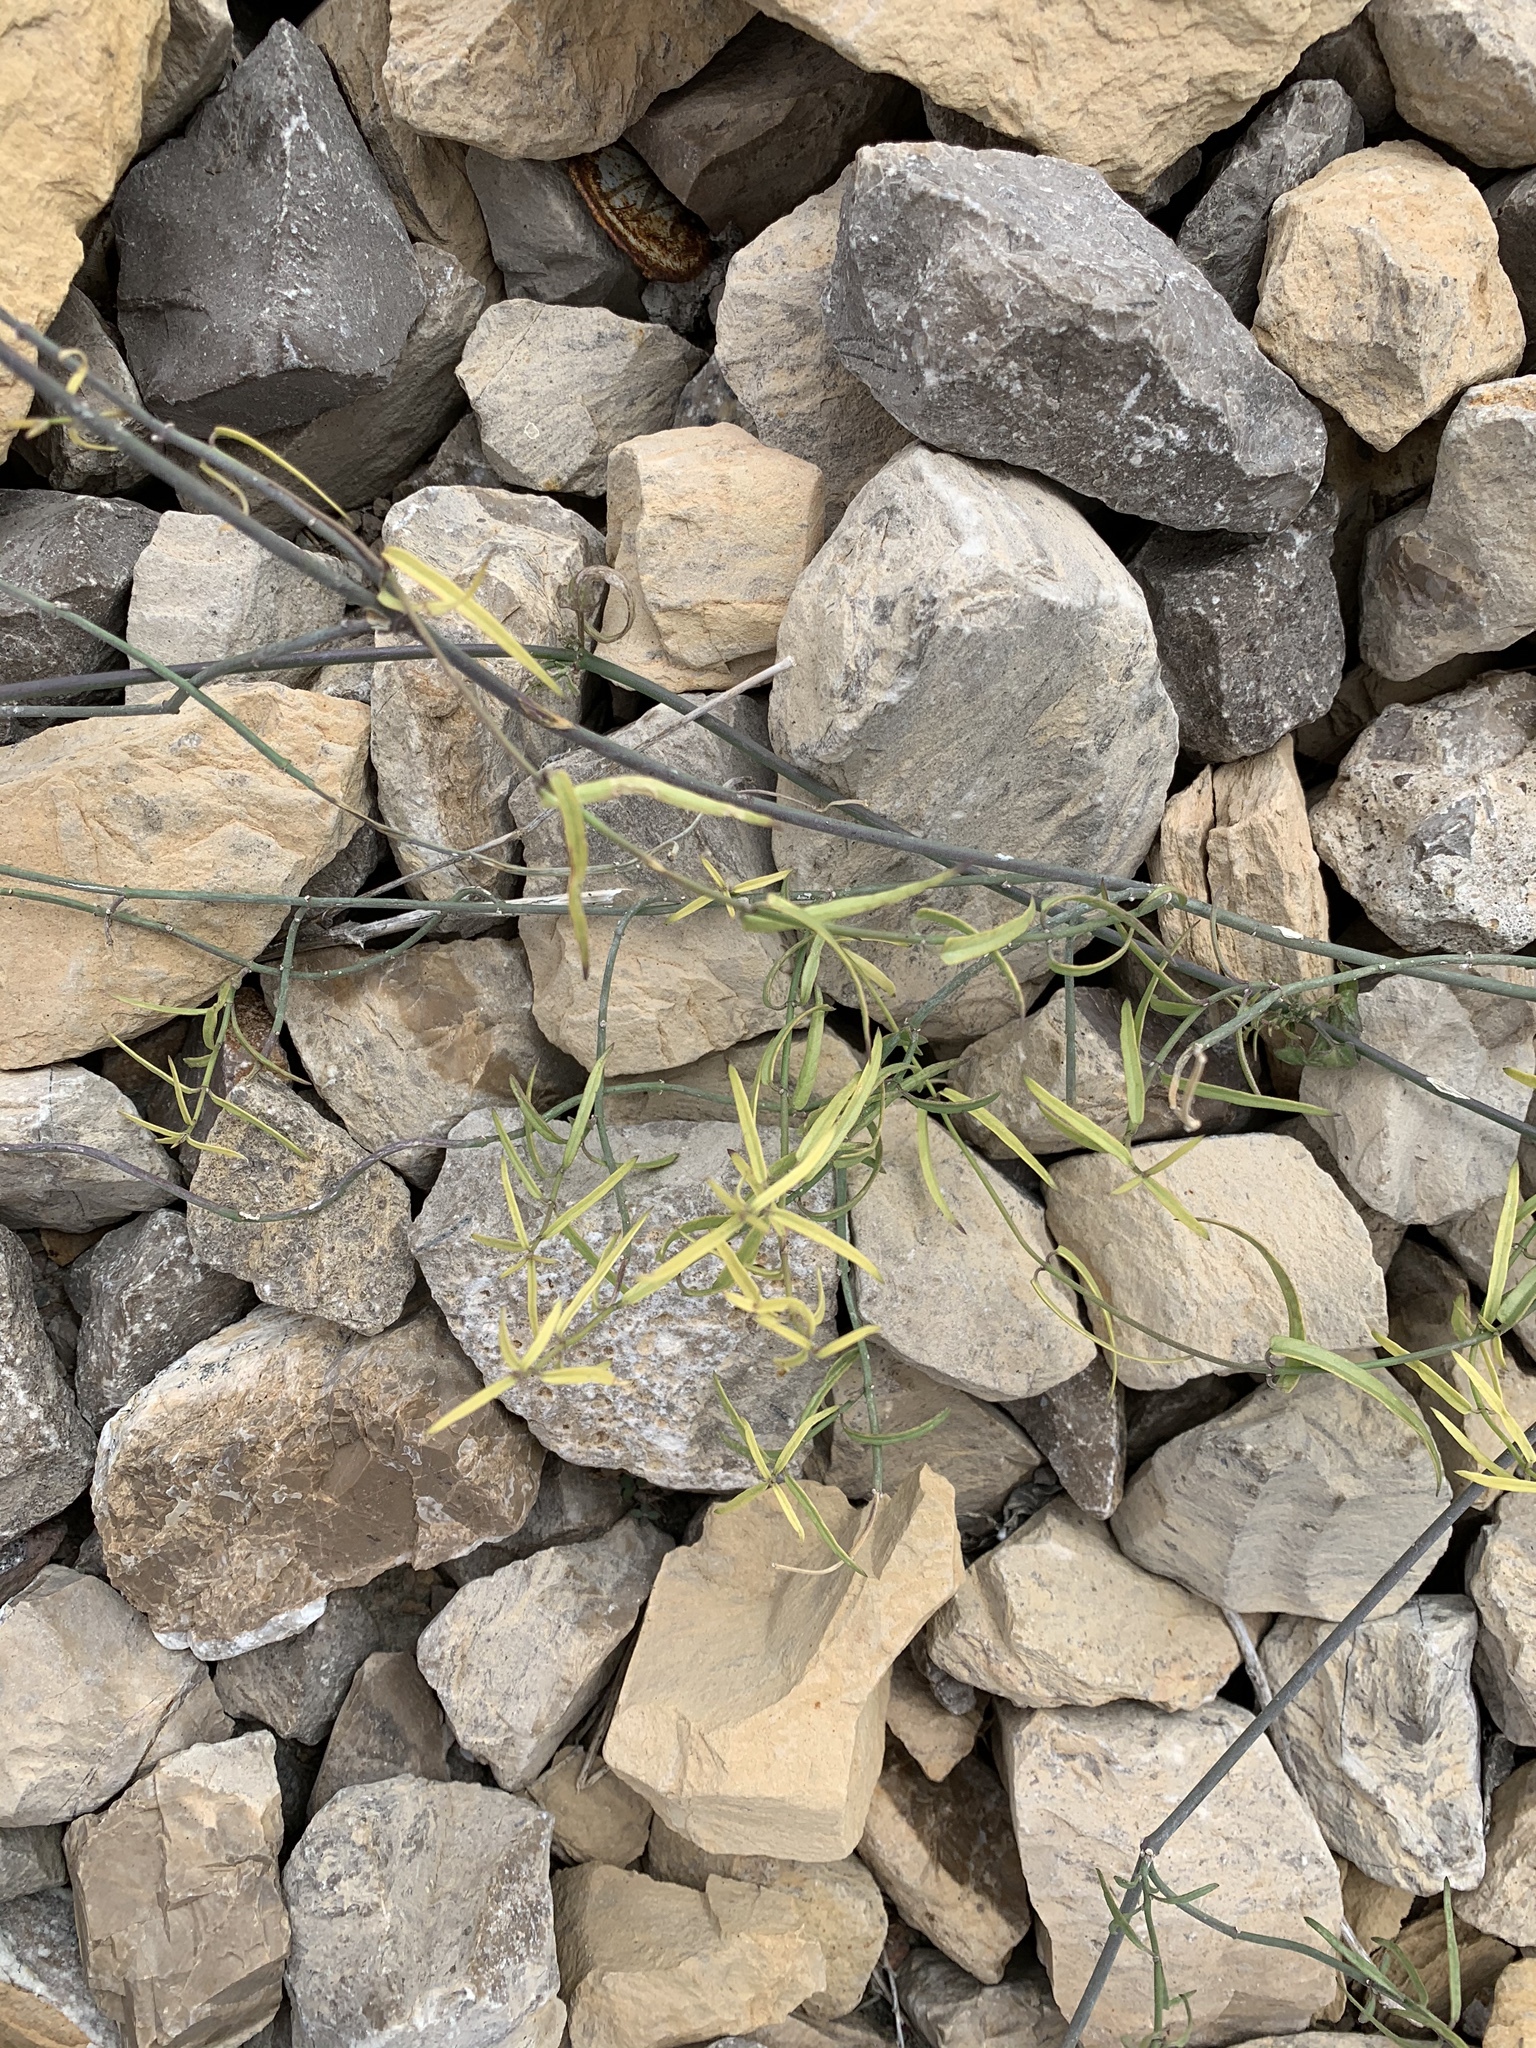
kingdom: Plantae
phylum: Tracheophyta
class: Magnoliopsida
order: Gentianales
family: Apocynaceae
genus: Funastrum
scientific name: Funastrum heterophyllum
